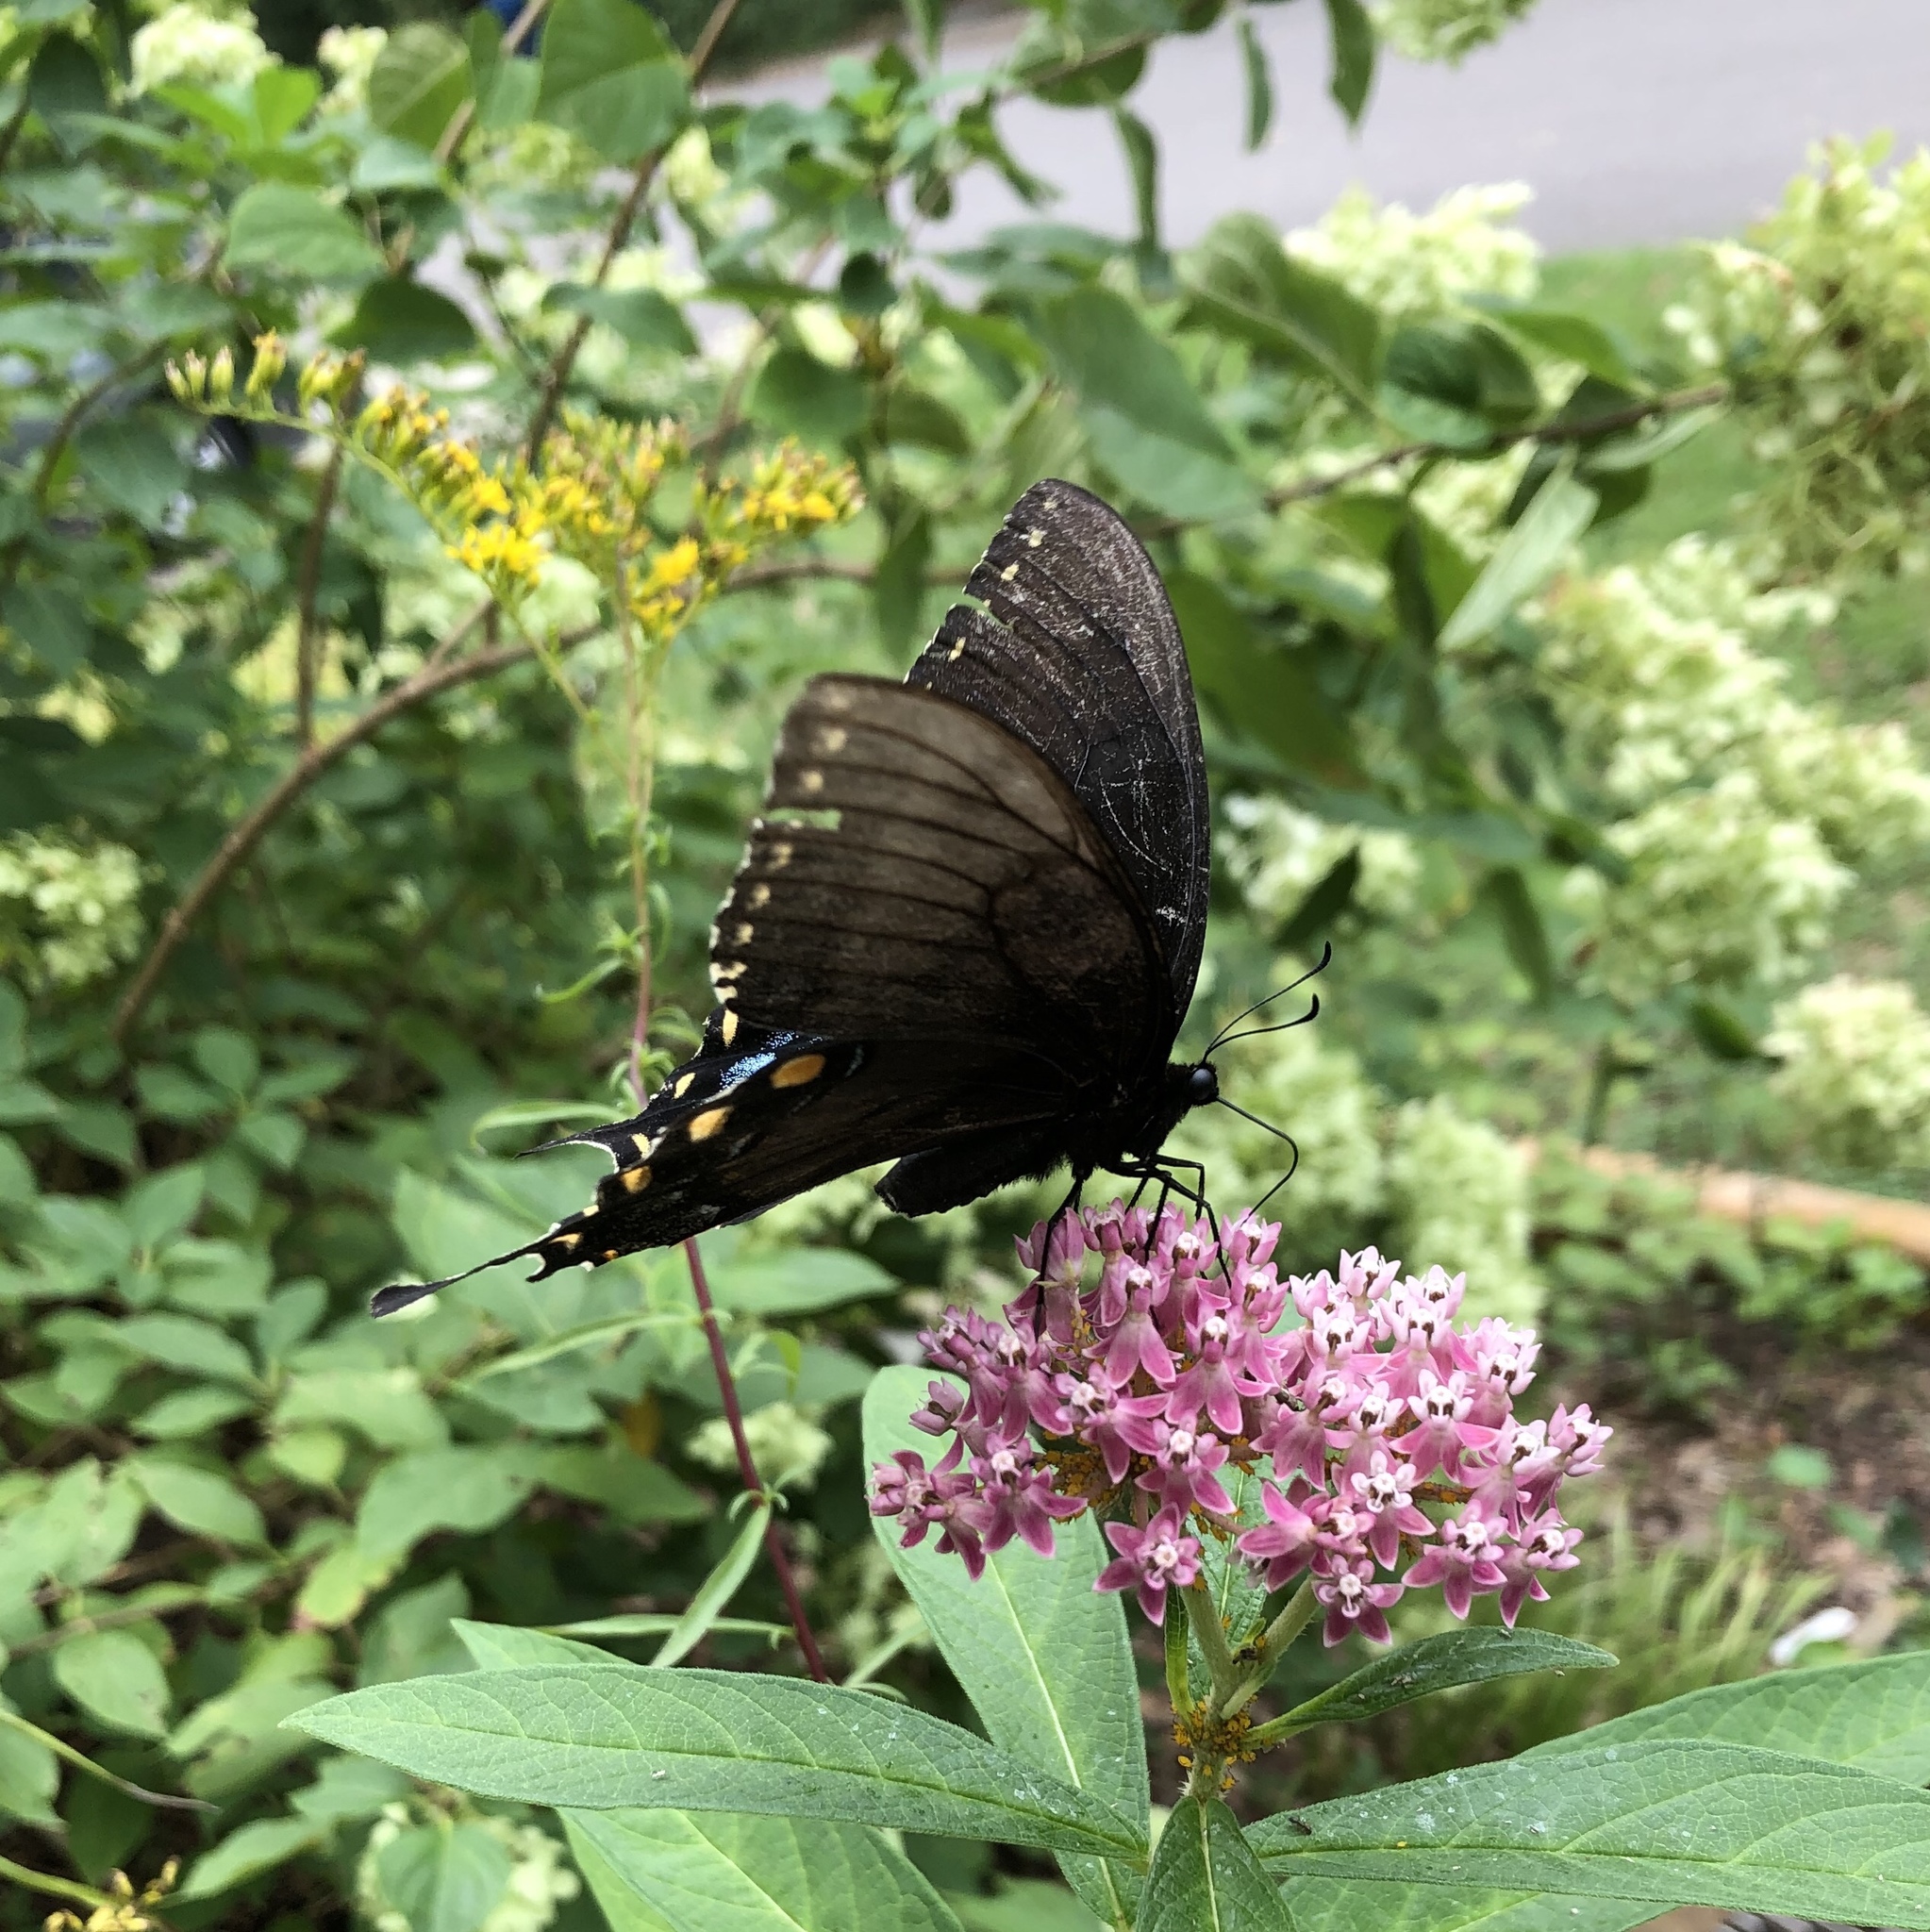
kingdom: Animalia
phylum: Arthropoda
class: Insecta
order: Lepidoptera
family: Papilionidae
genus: Papilio
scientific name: Papilio glaucus
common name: Tiger swallowtail
